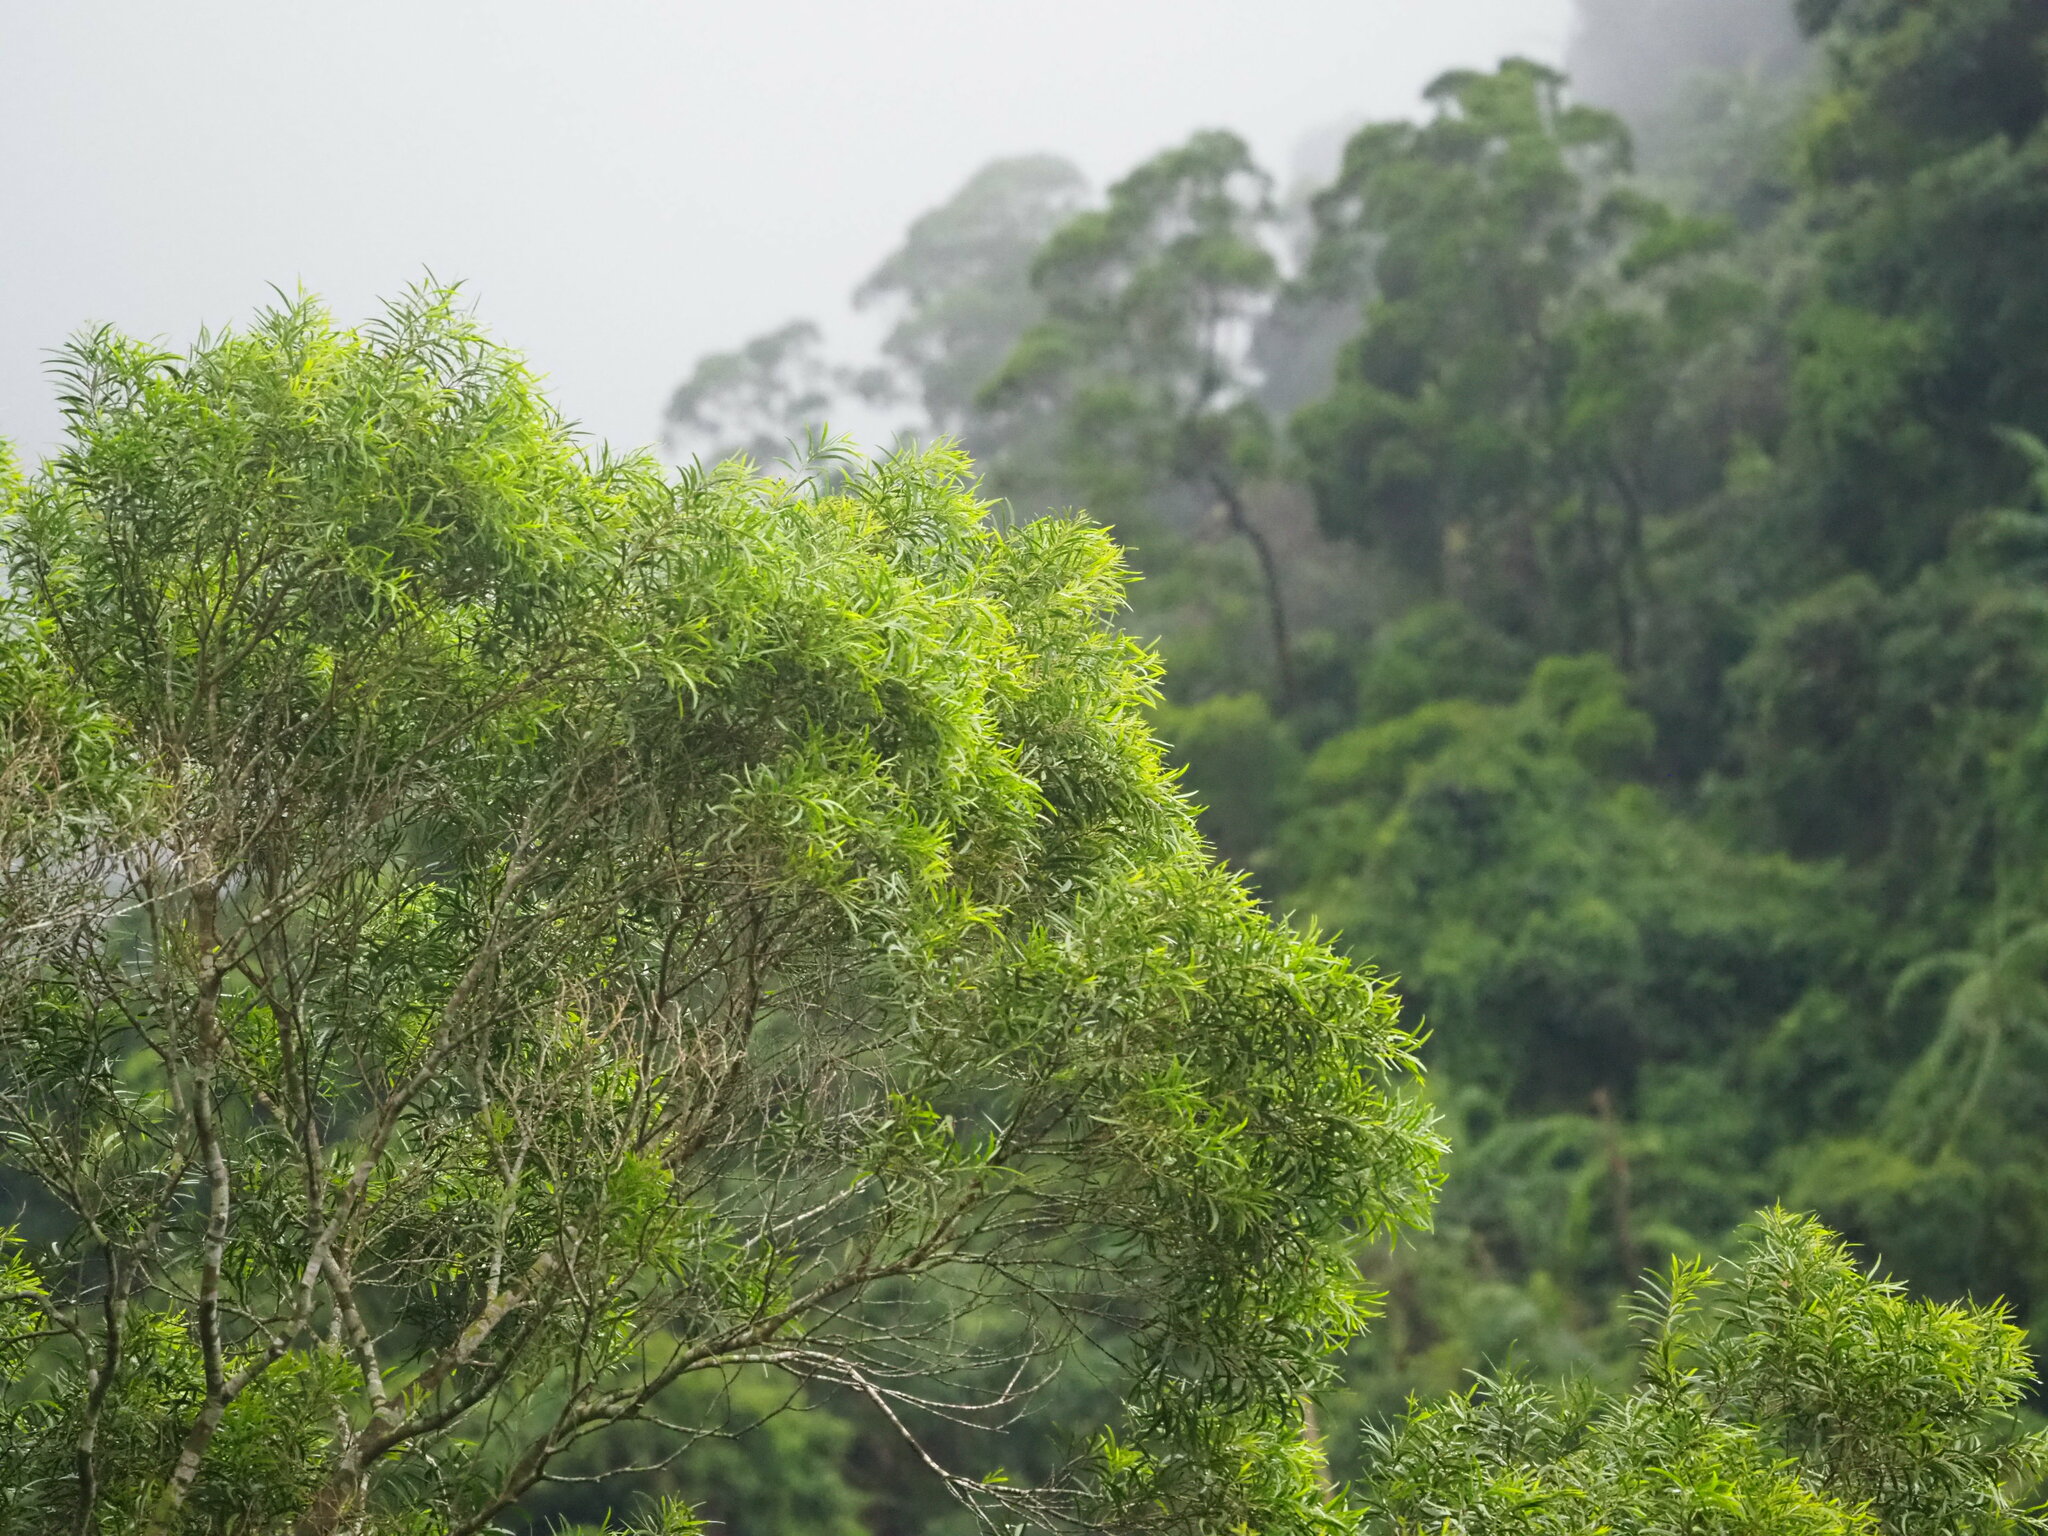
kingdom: Plantae
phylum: Tracheophyta
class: Magnoliopsida
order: Fabales
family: Fabaceae
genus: Acacia
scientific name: Acacia confusa
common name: Formosan koa
